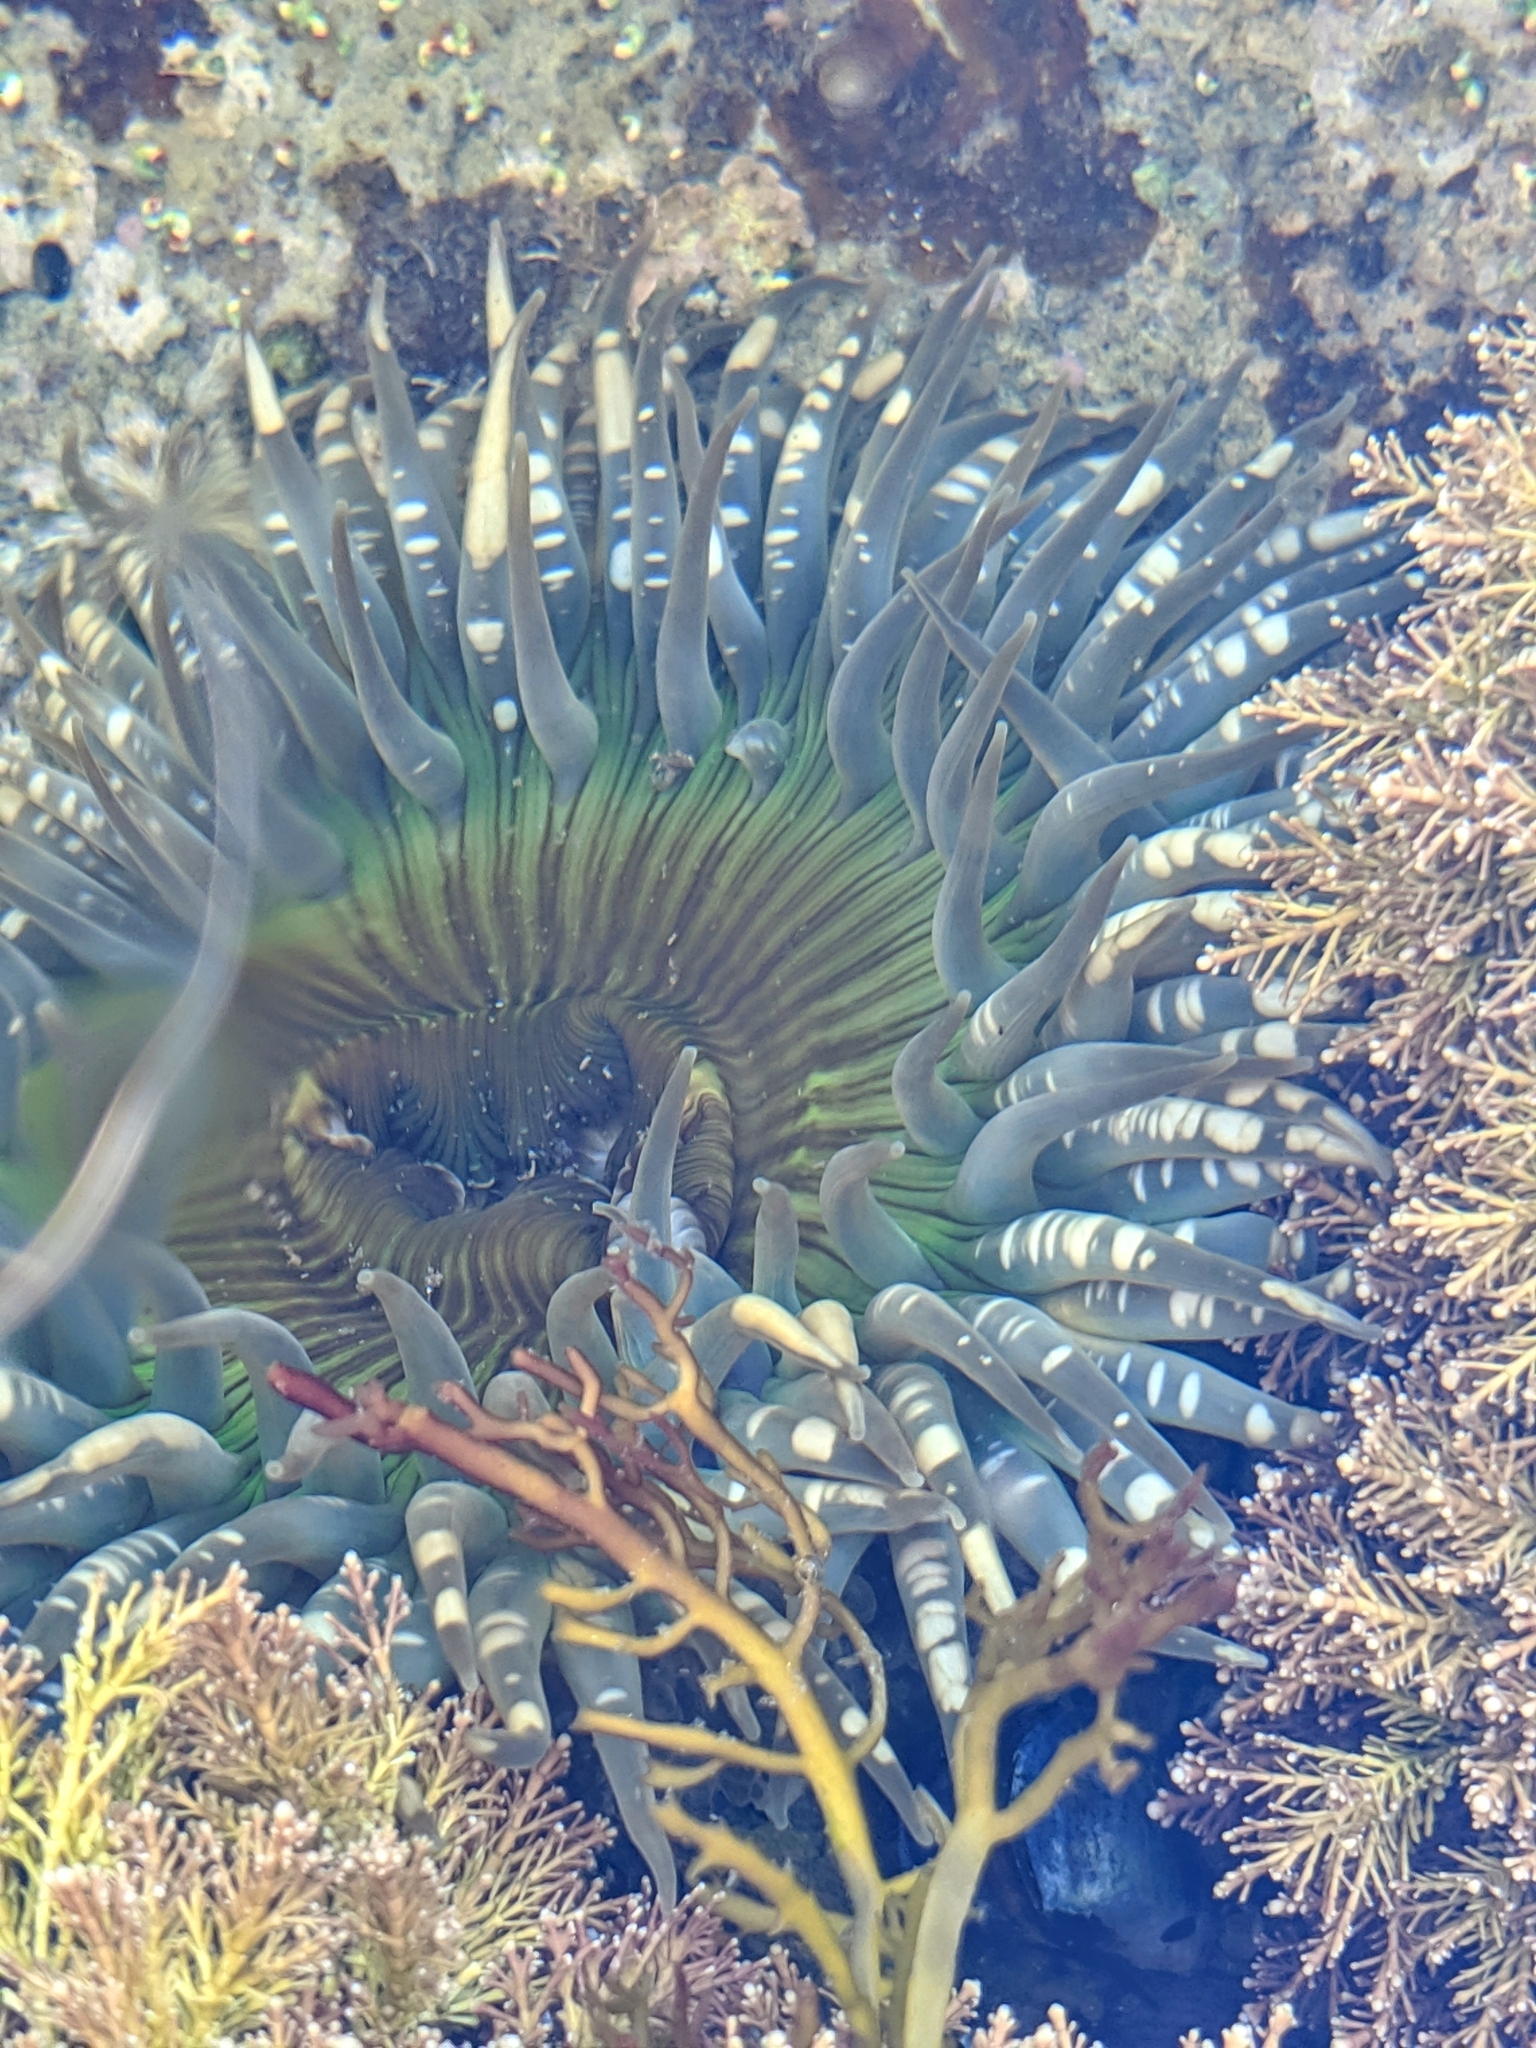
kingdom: Animalia
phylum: Cnidaria
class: Anthozoa
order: Actiniaria
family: Actiniidae
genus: Anthopleura
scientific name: Anthopleura sola
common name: Sun anemone
